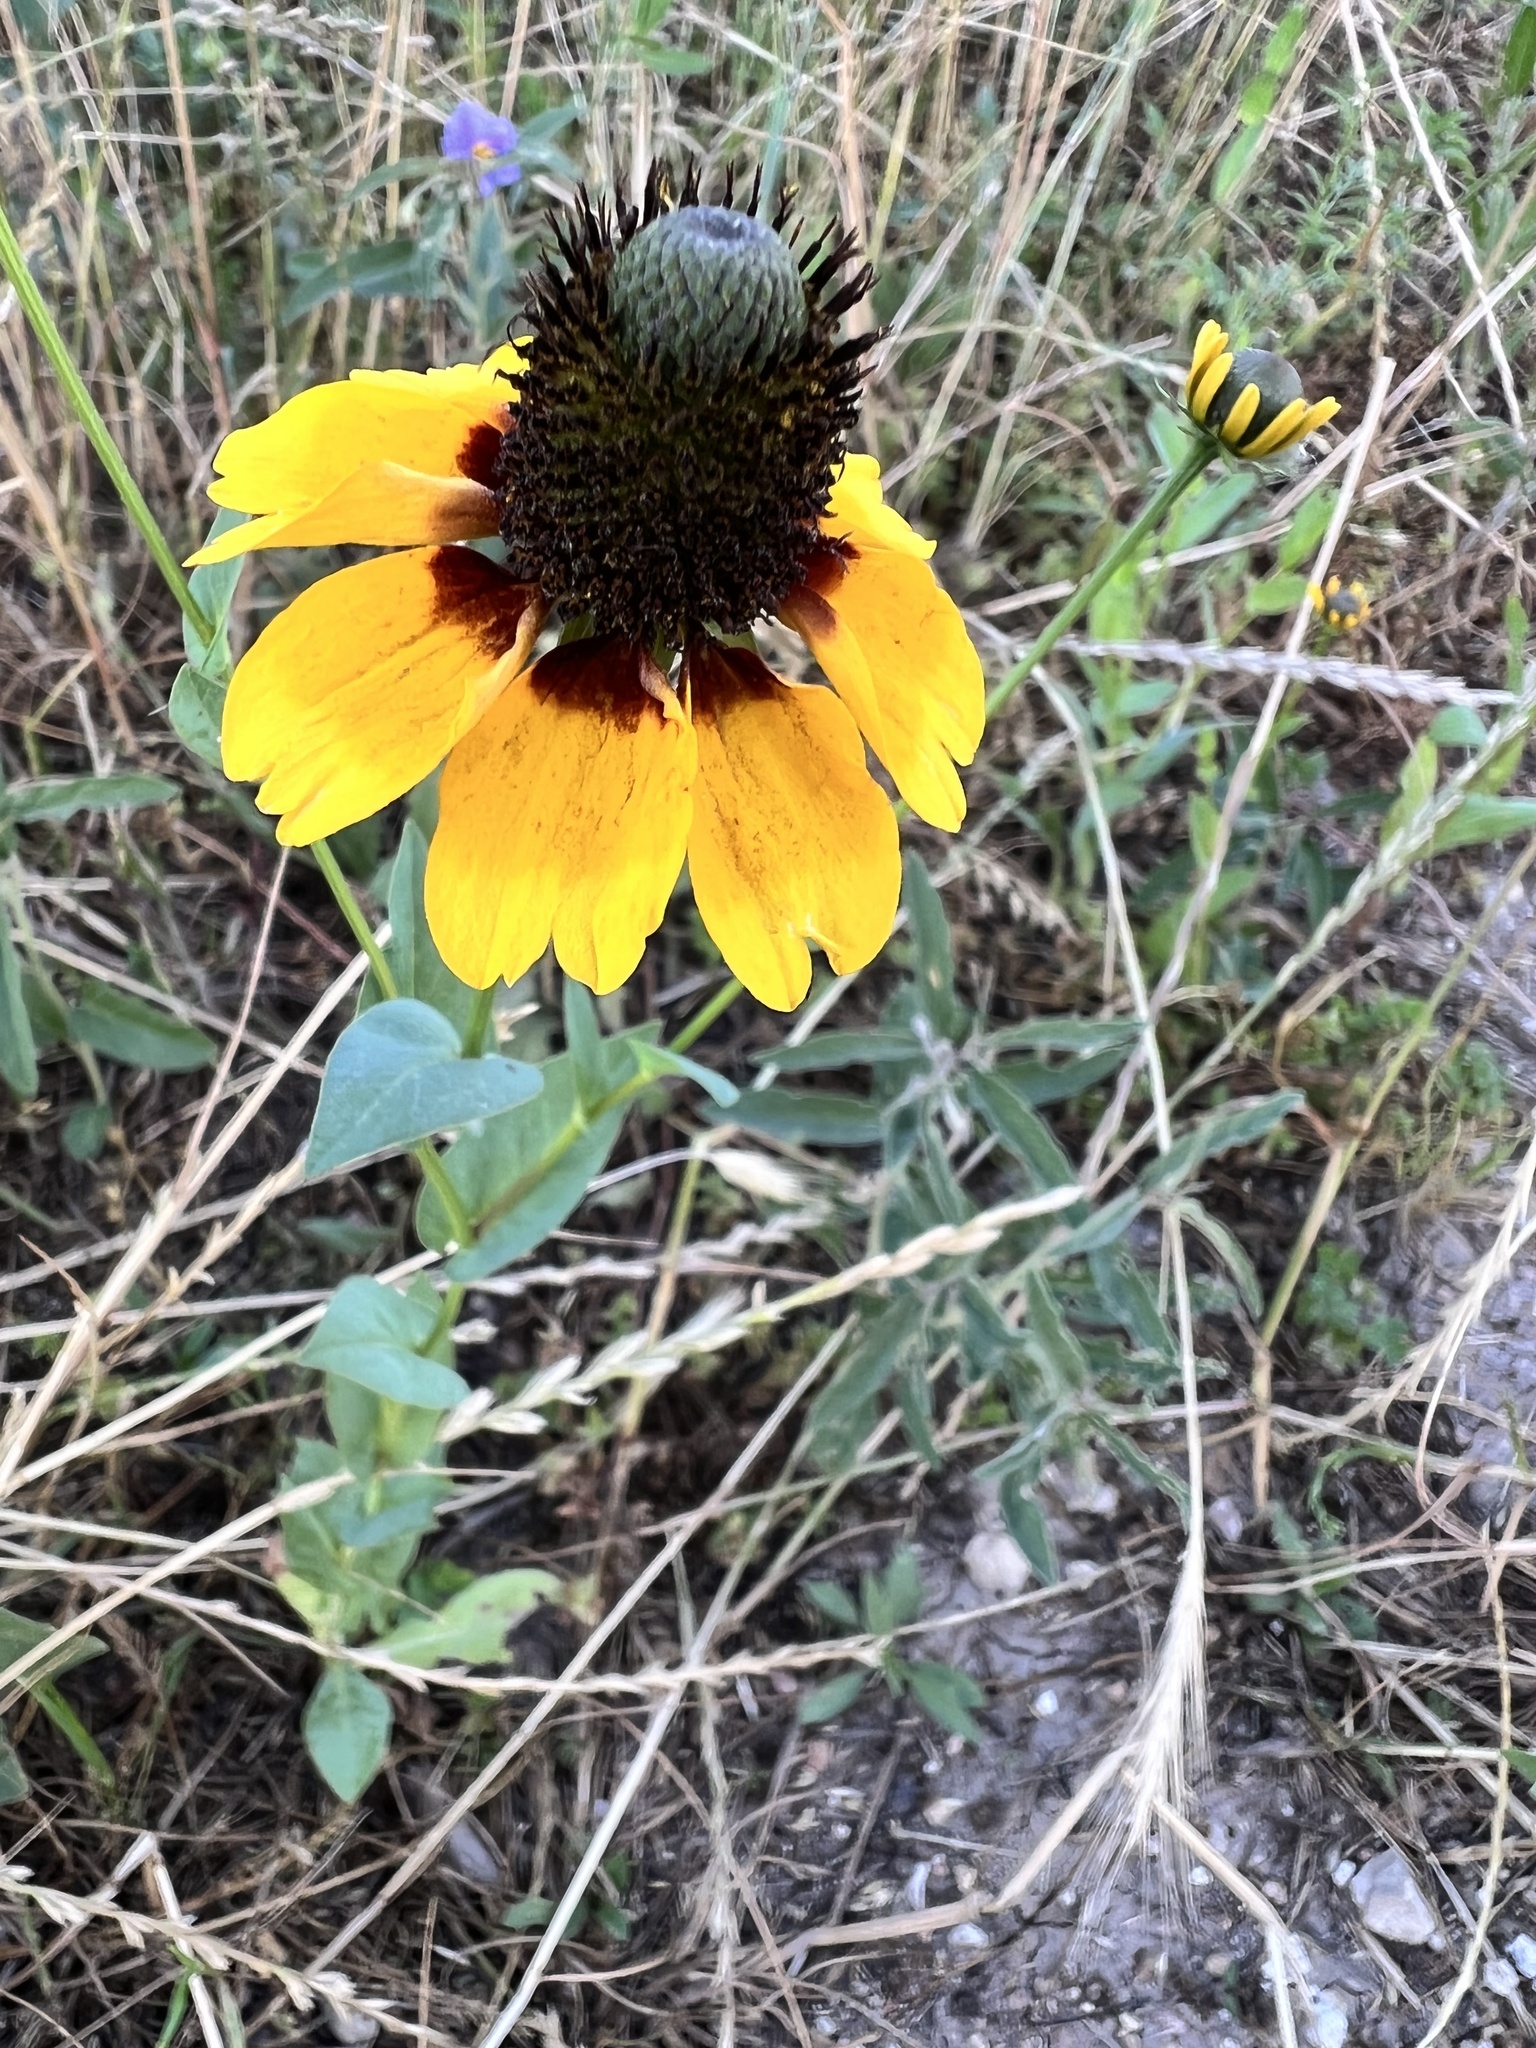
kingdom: Plantae
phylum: Tracheophyta
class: Magnoliopsida
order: Asterales
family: Asteraceae
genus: Rudbeckia
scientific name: Rudbeckia amplexicaulis
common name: Clasping-leaf coneflower
